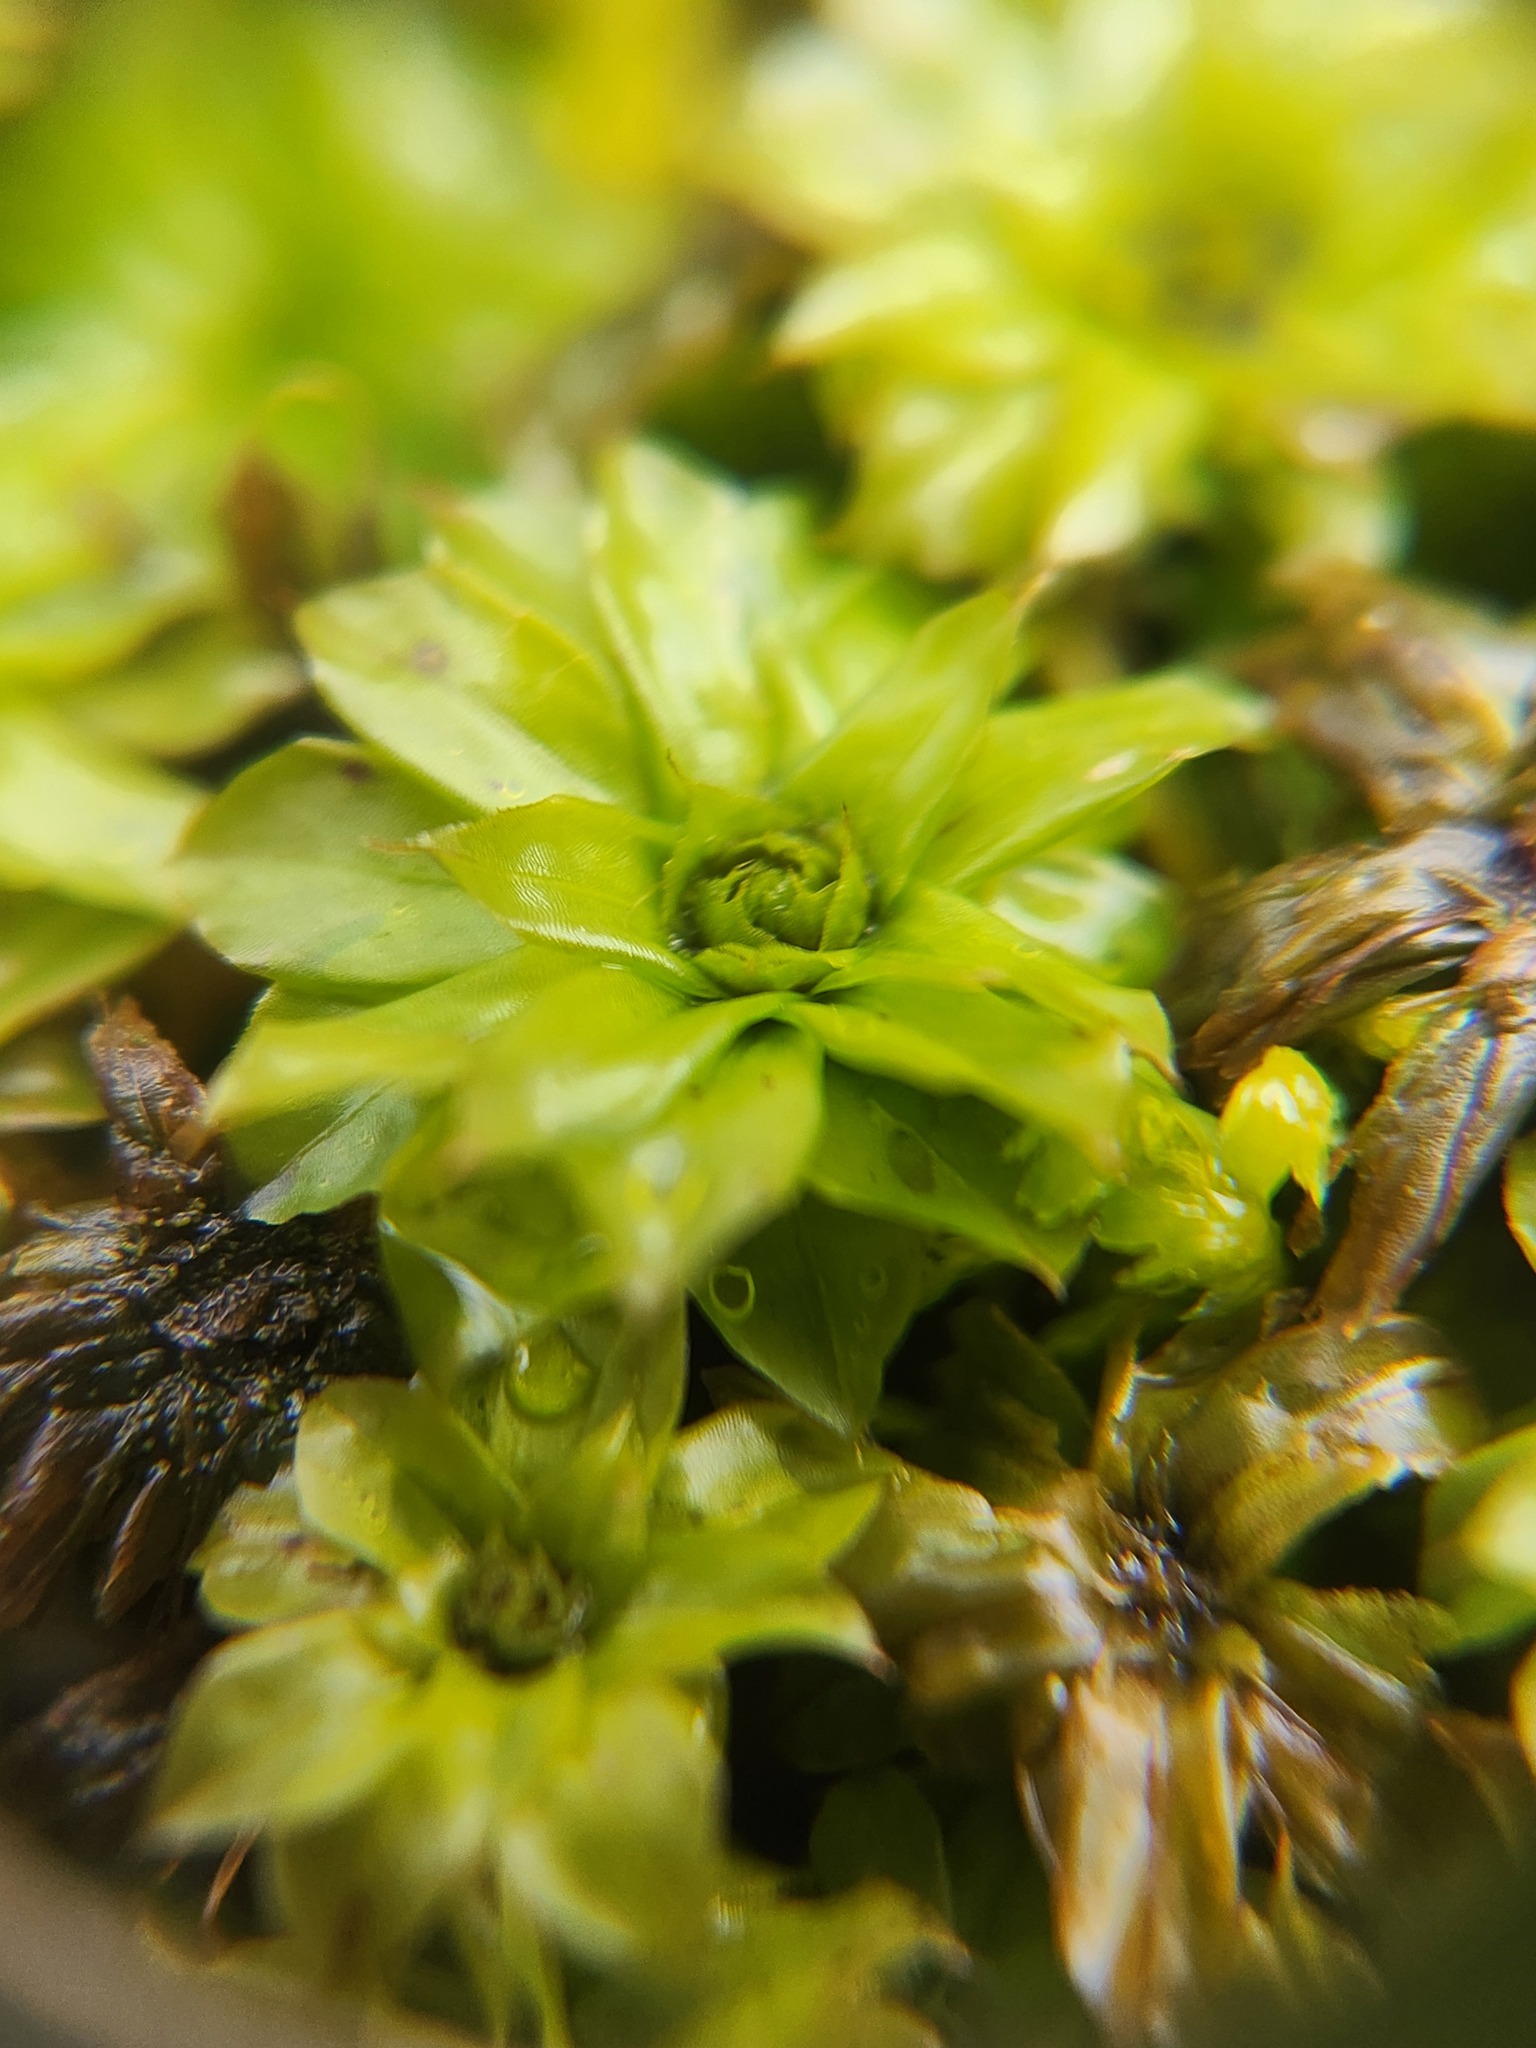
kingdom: Plantae
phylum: Bryophyta
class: Bryopsida
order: Bryales
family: Bryaceae
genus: Rhodobryum
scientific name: Rhodobryum ontariense
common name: Ontario rhodobryum moss
